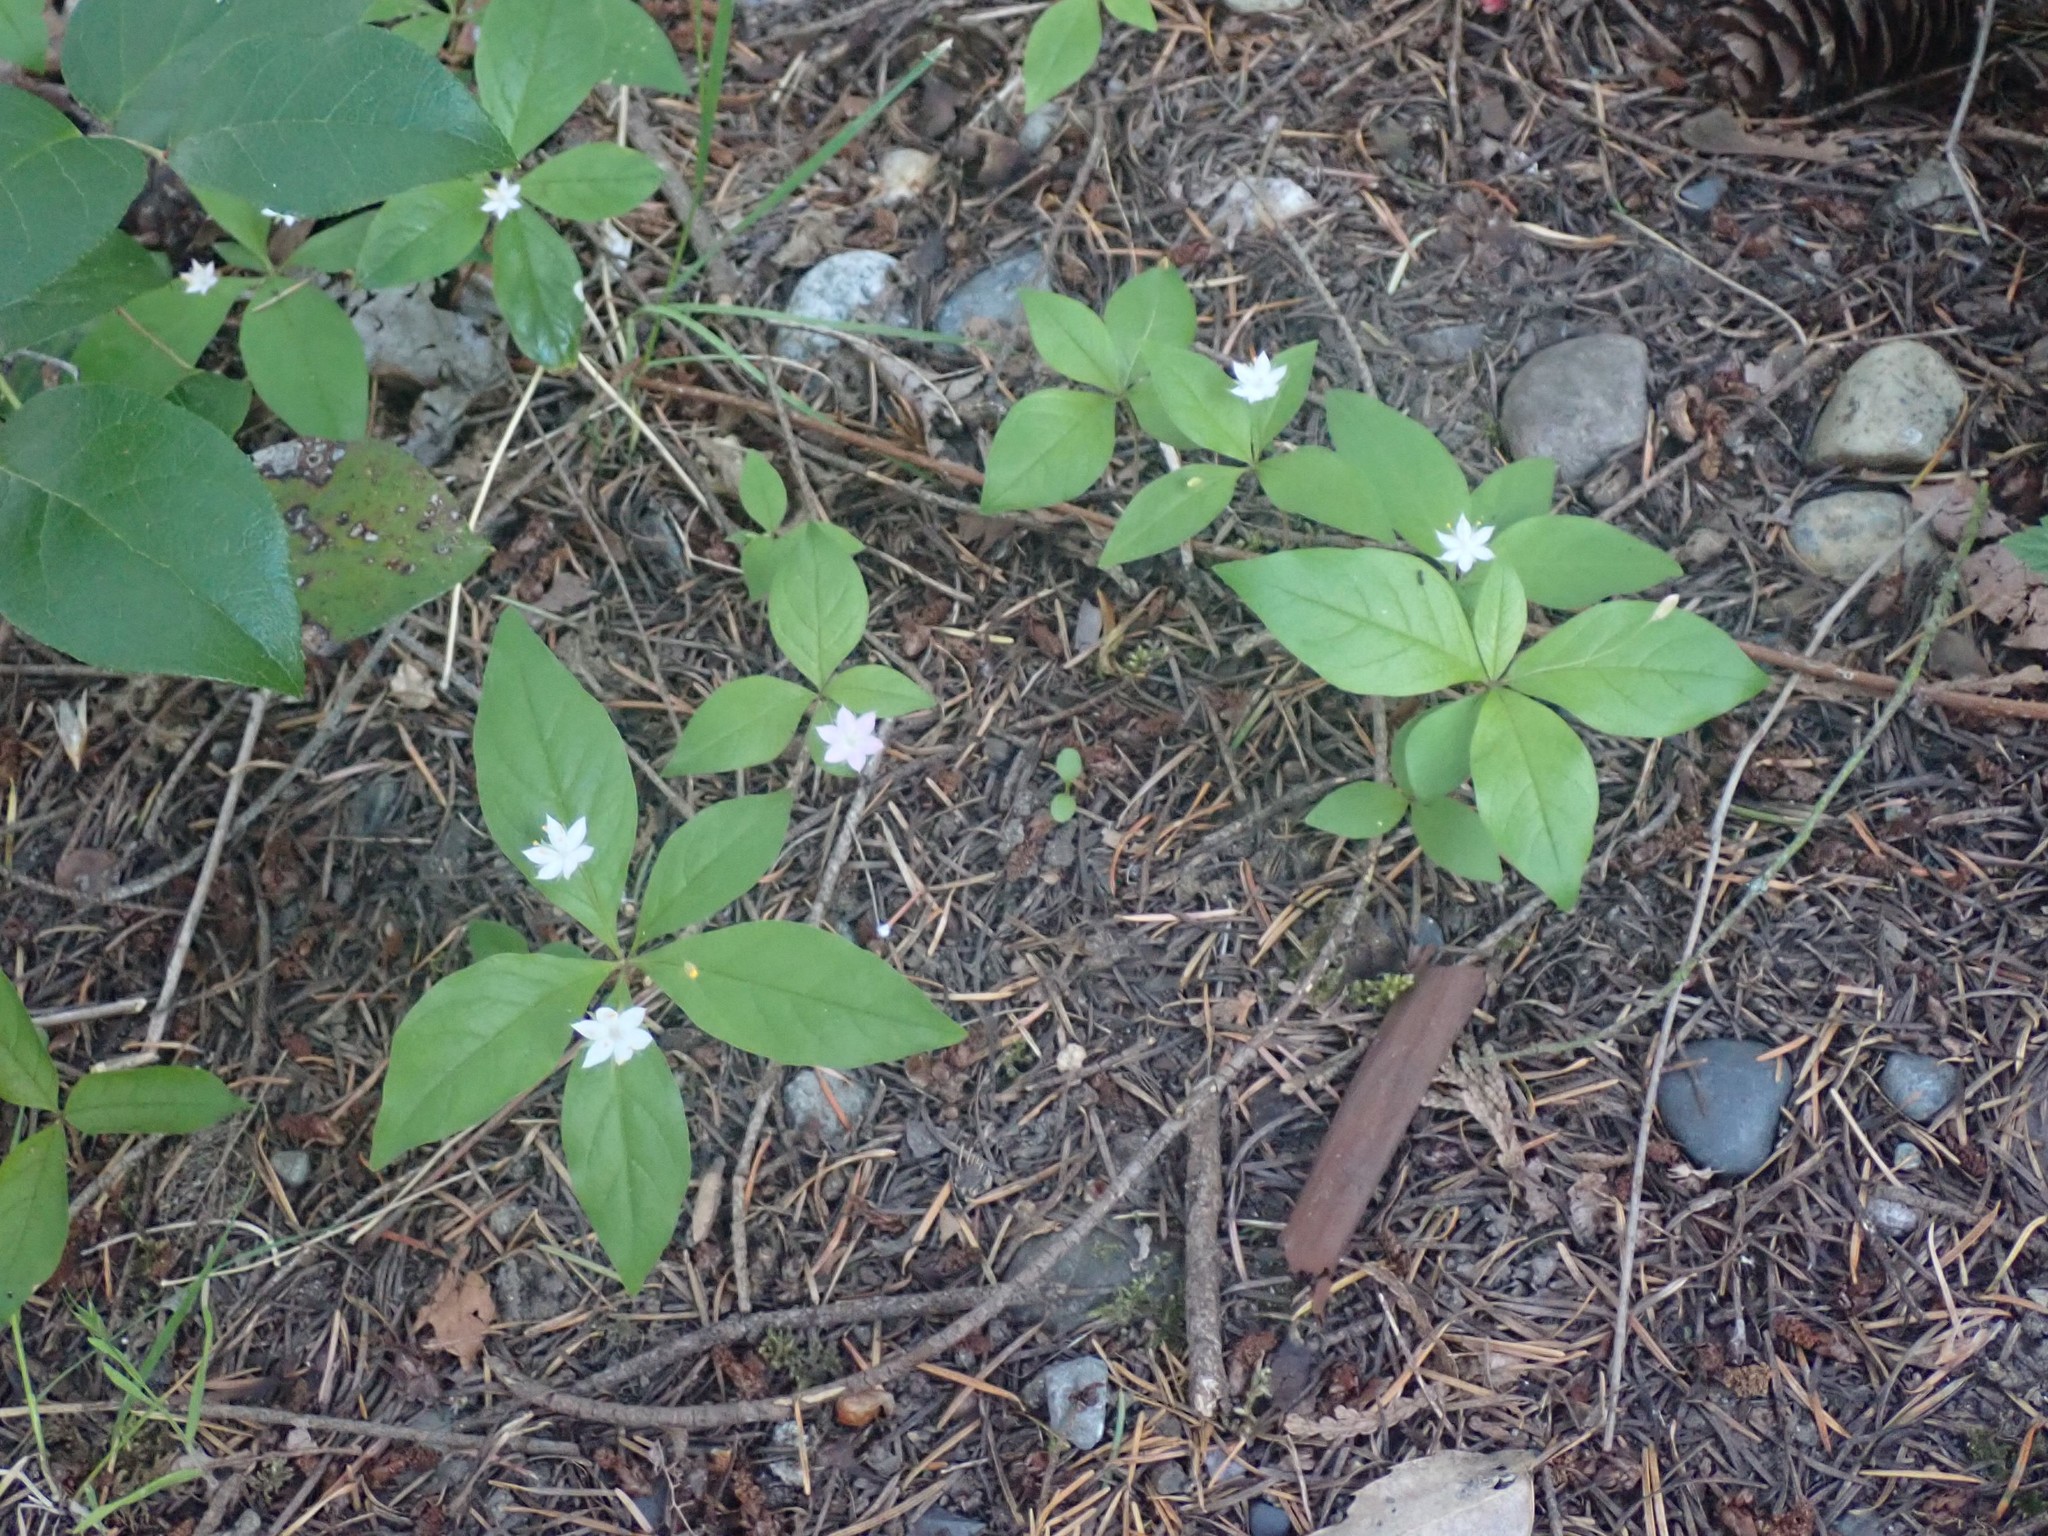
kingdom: Plantae
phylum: Tracheophyta
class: Magnoliopsida
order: Ericales
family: Primulaceae
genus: Lysimachia
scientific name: Lysimachia latifolia
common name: Pacific starflower
